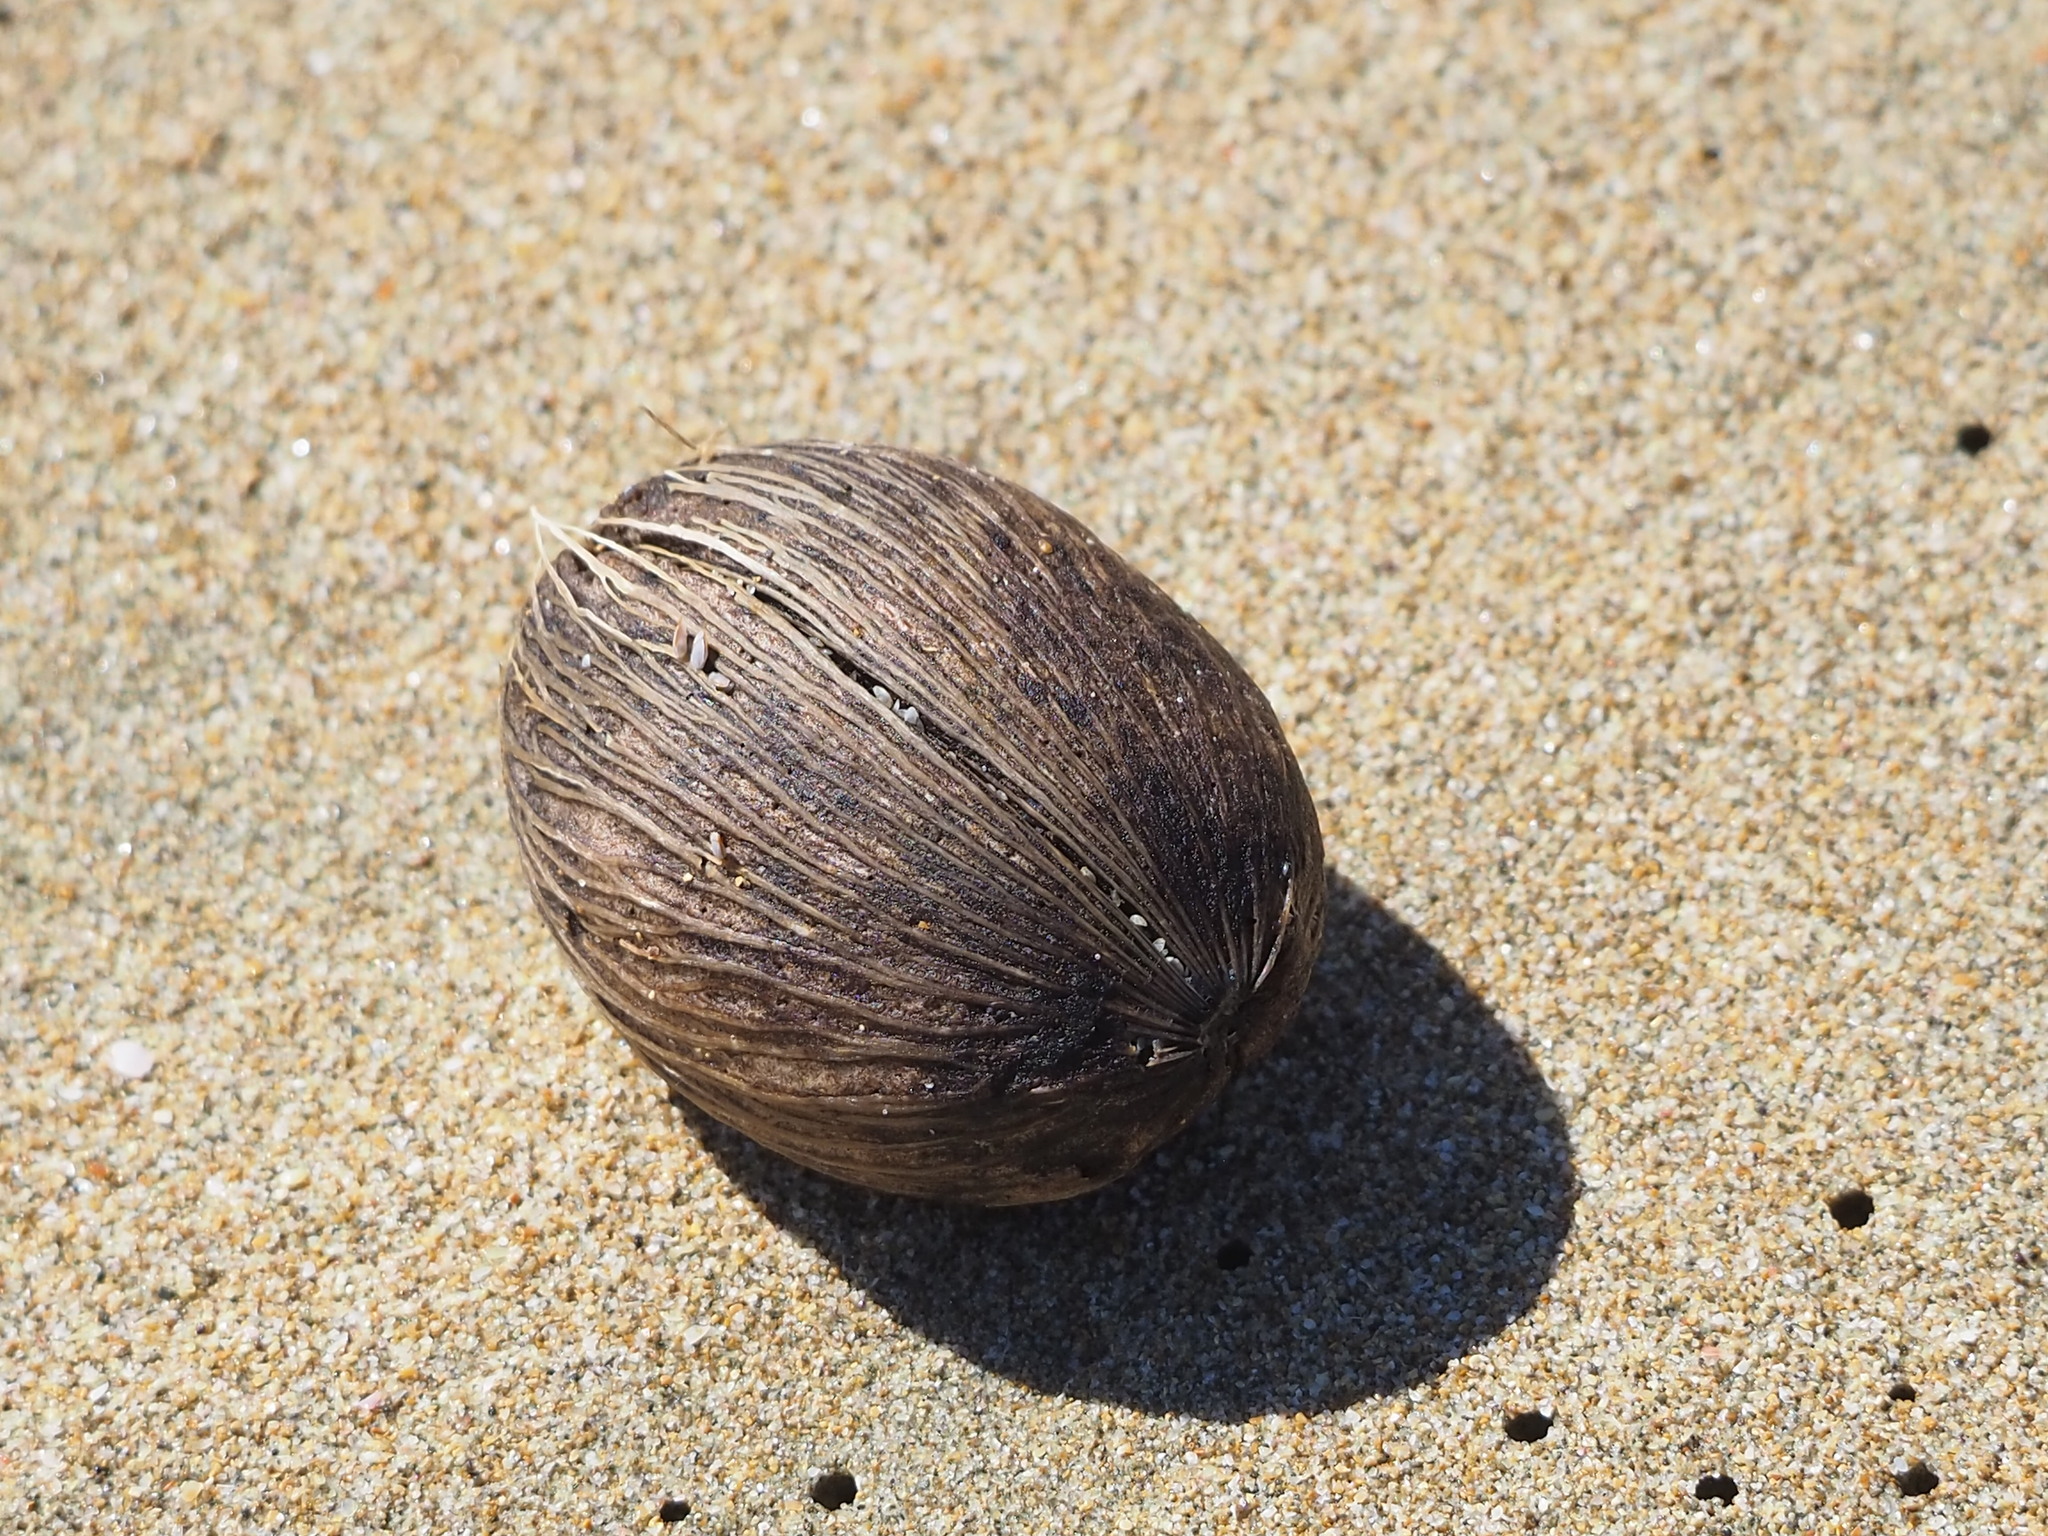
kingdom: Plantae
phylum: Tracheophyta
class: Magnoliopsida
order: Gentianales
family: Apocynaceae
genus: Cerbera
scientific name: Cerbera manghas
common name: Reva
